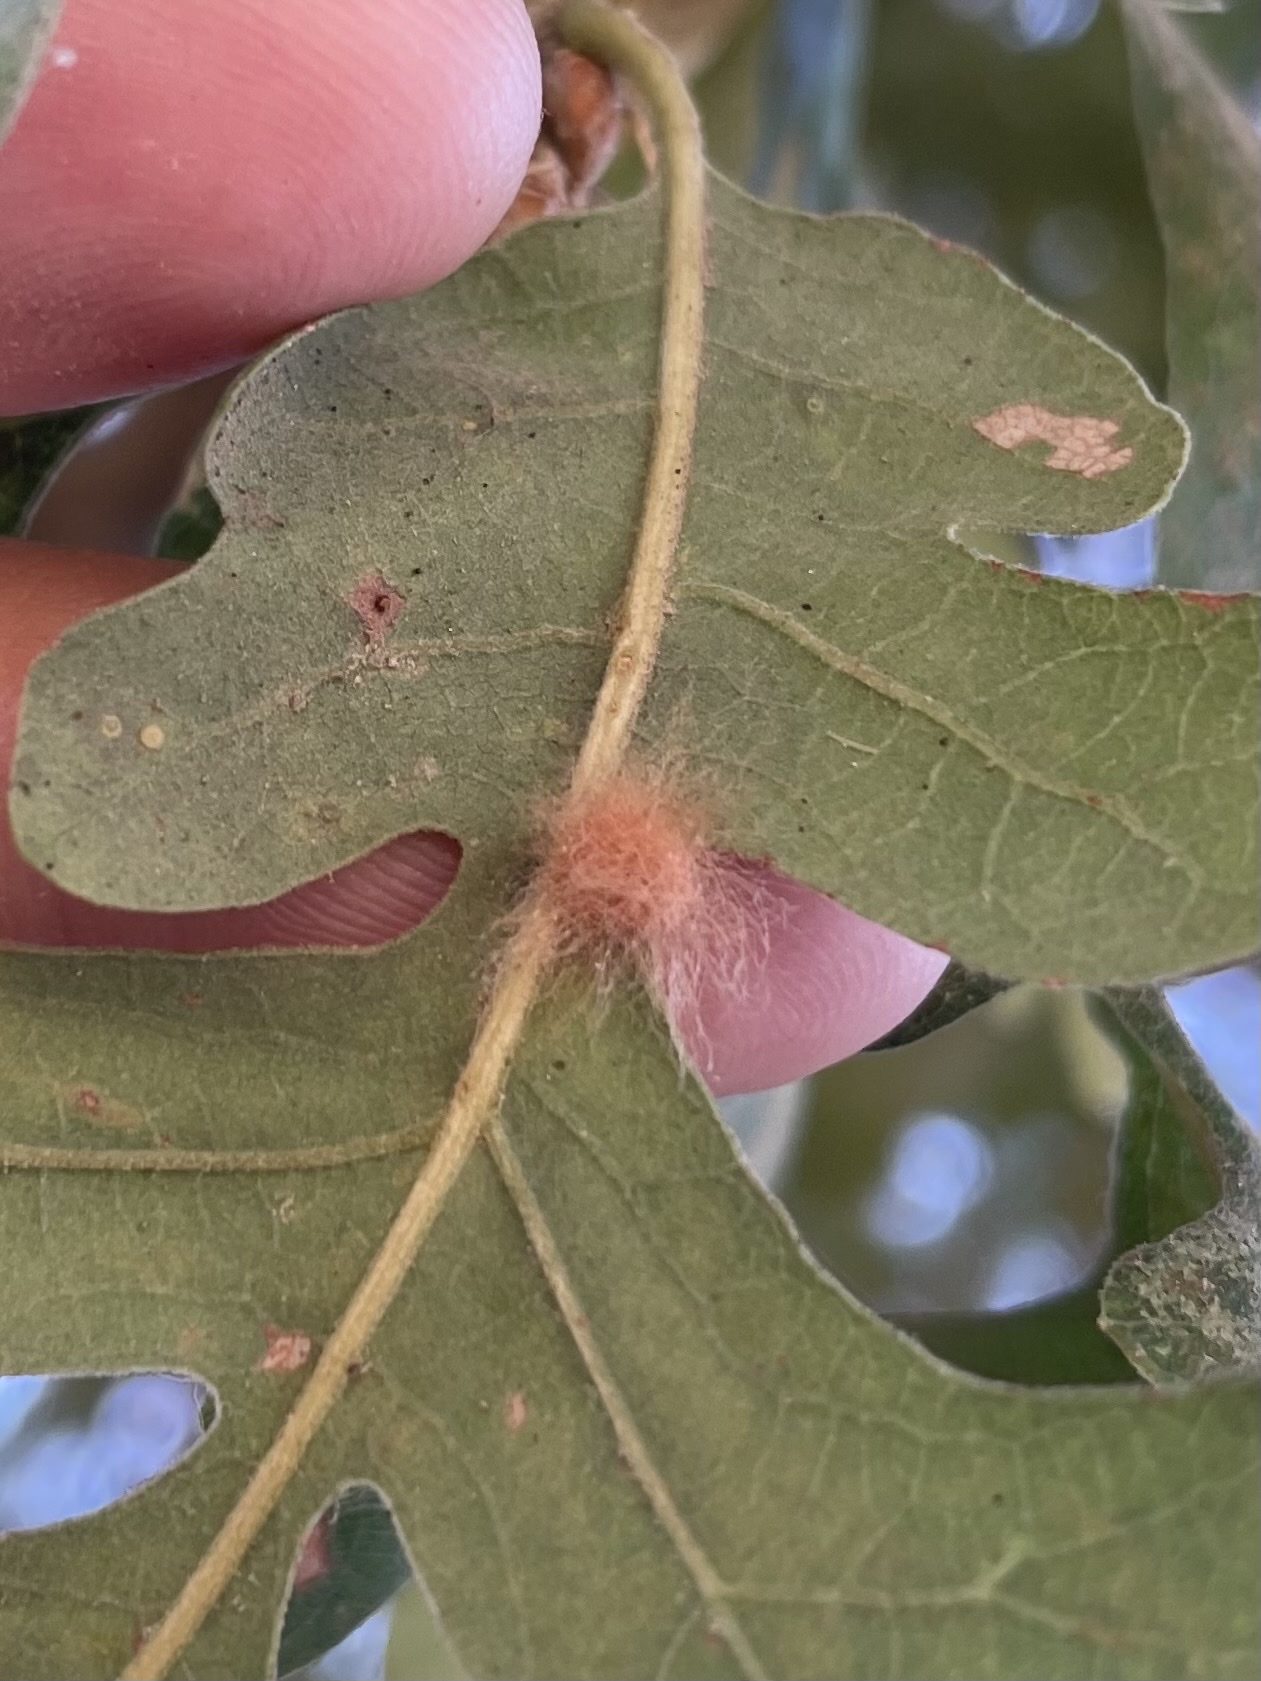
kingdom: Animalia
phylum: Arthropoda
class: Insecta
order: Hymenoptera
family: Cynipidae
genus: Andricus
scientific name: Andricus Druon fullawayi
